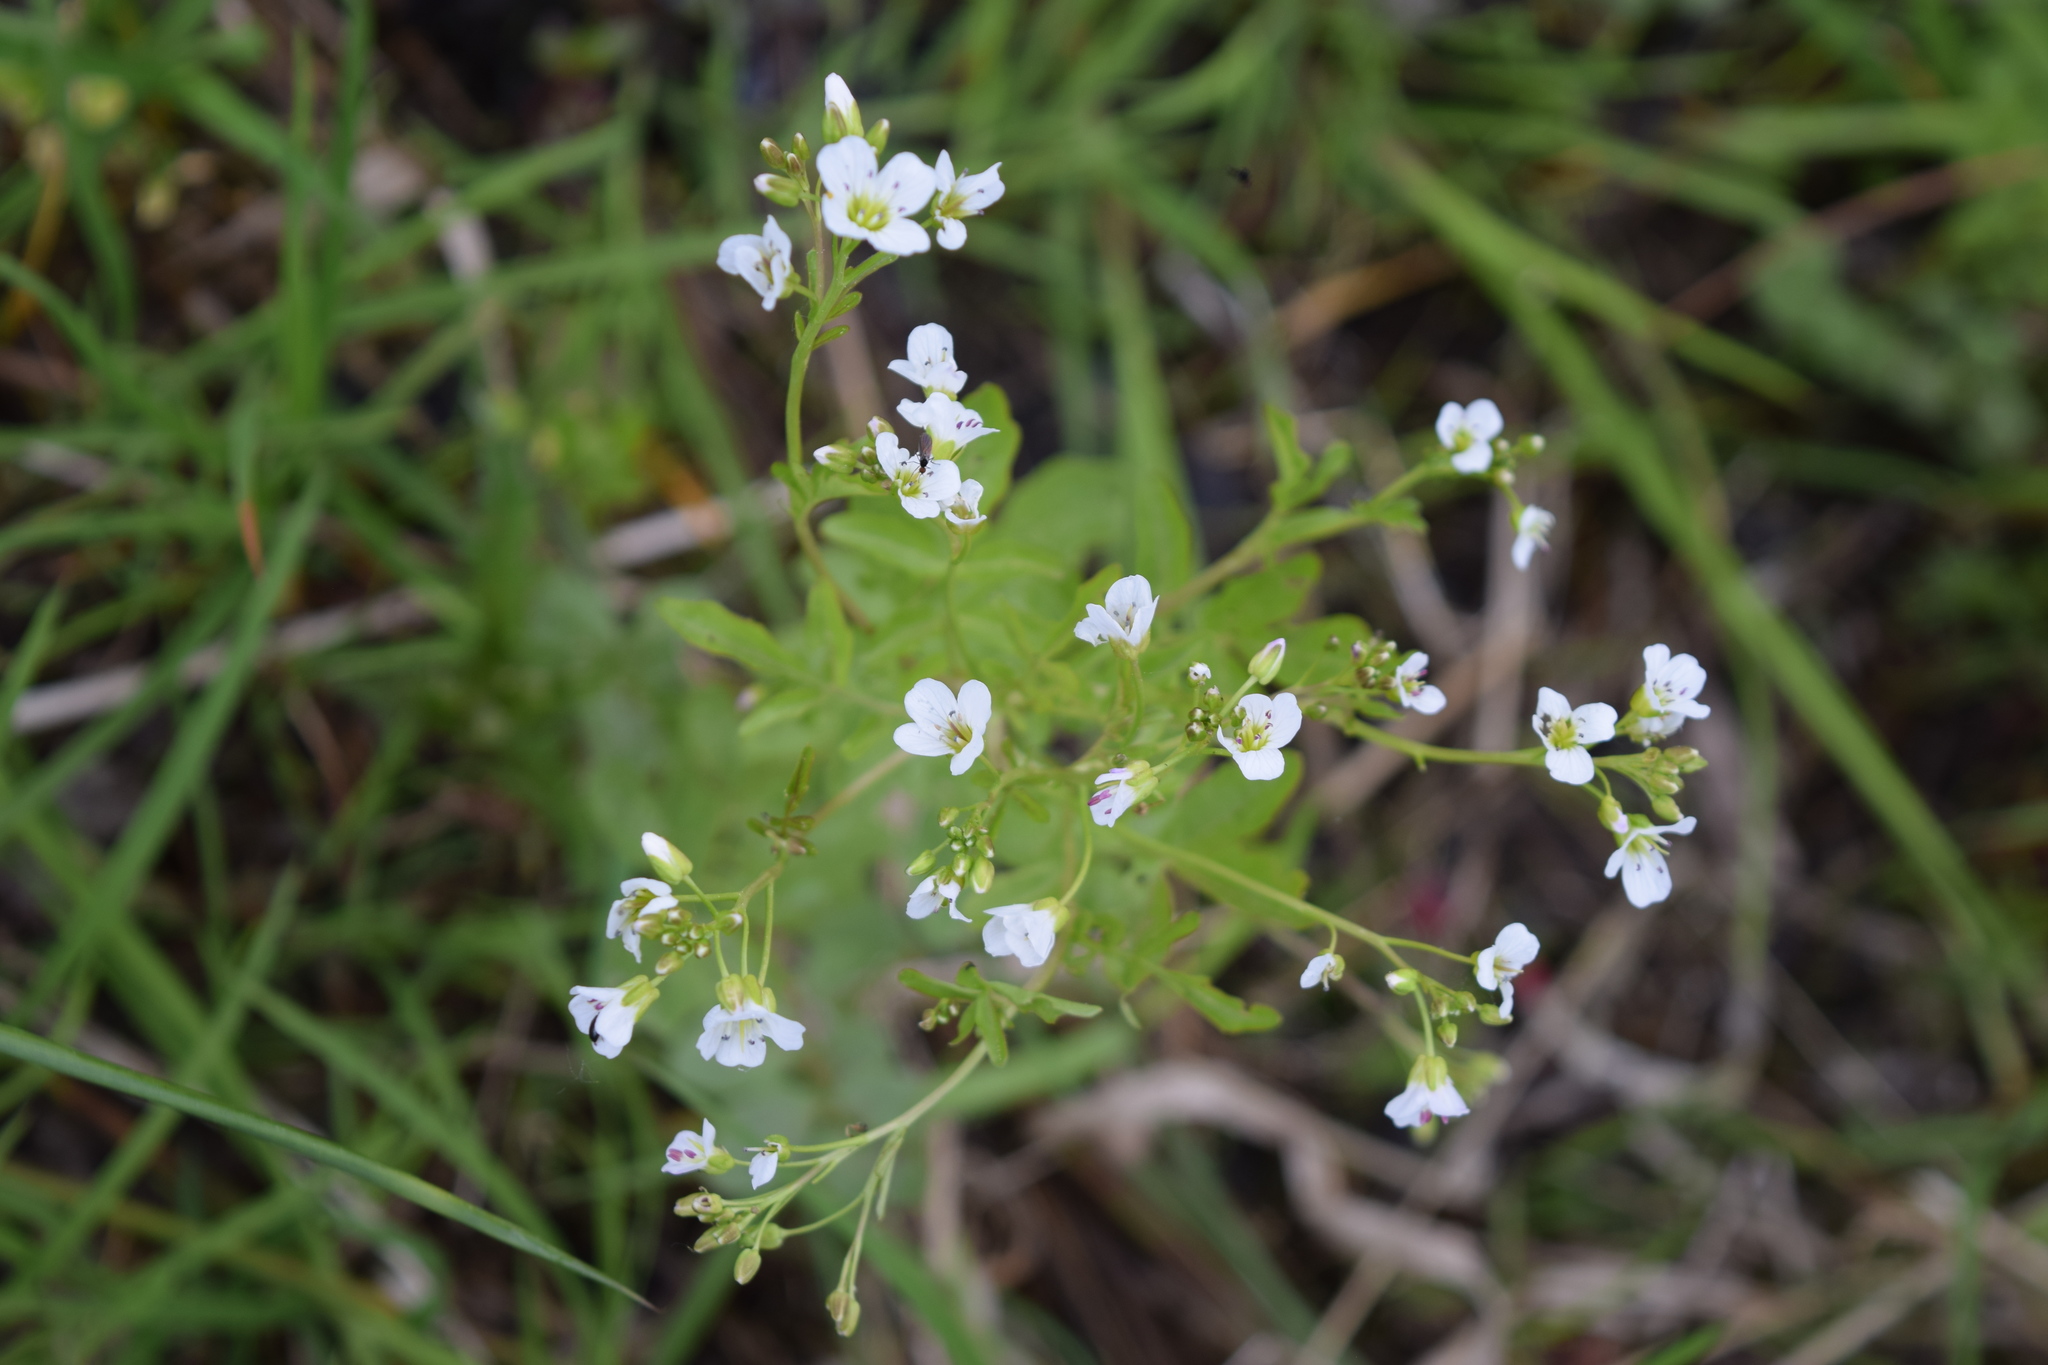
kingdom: Plantae
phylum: Tracheophyta
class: Magnoliopsida
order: Brassicales
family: Brassicaceae
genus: Cardamine
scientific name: Cardamine amara
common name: Large bitter-cress
